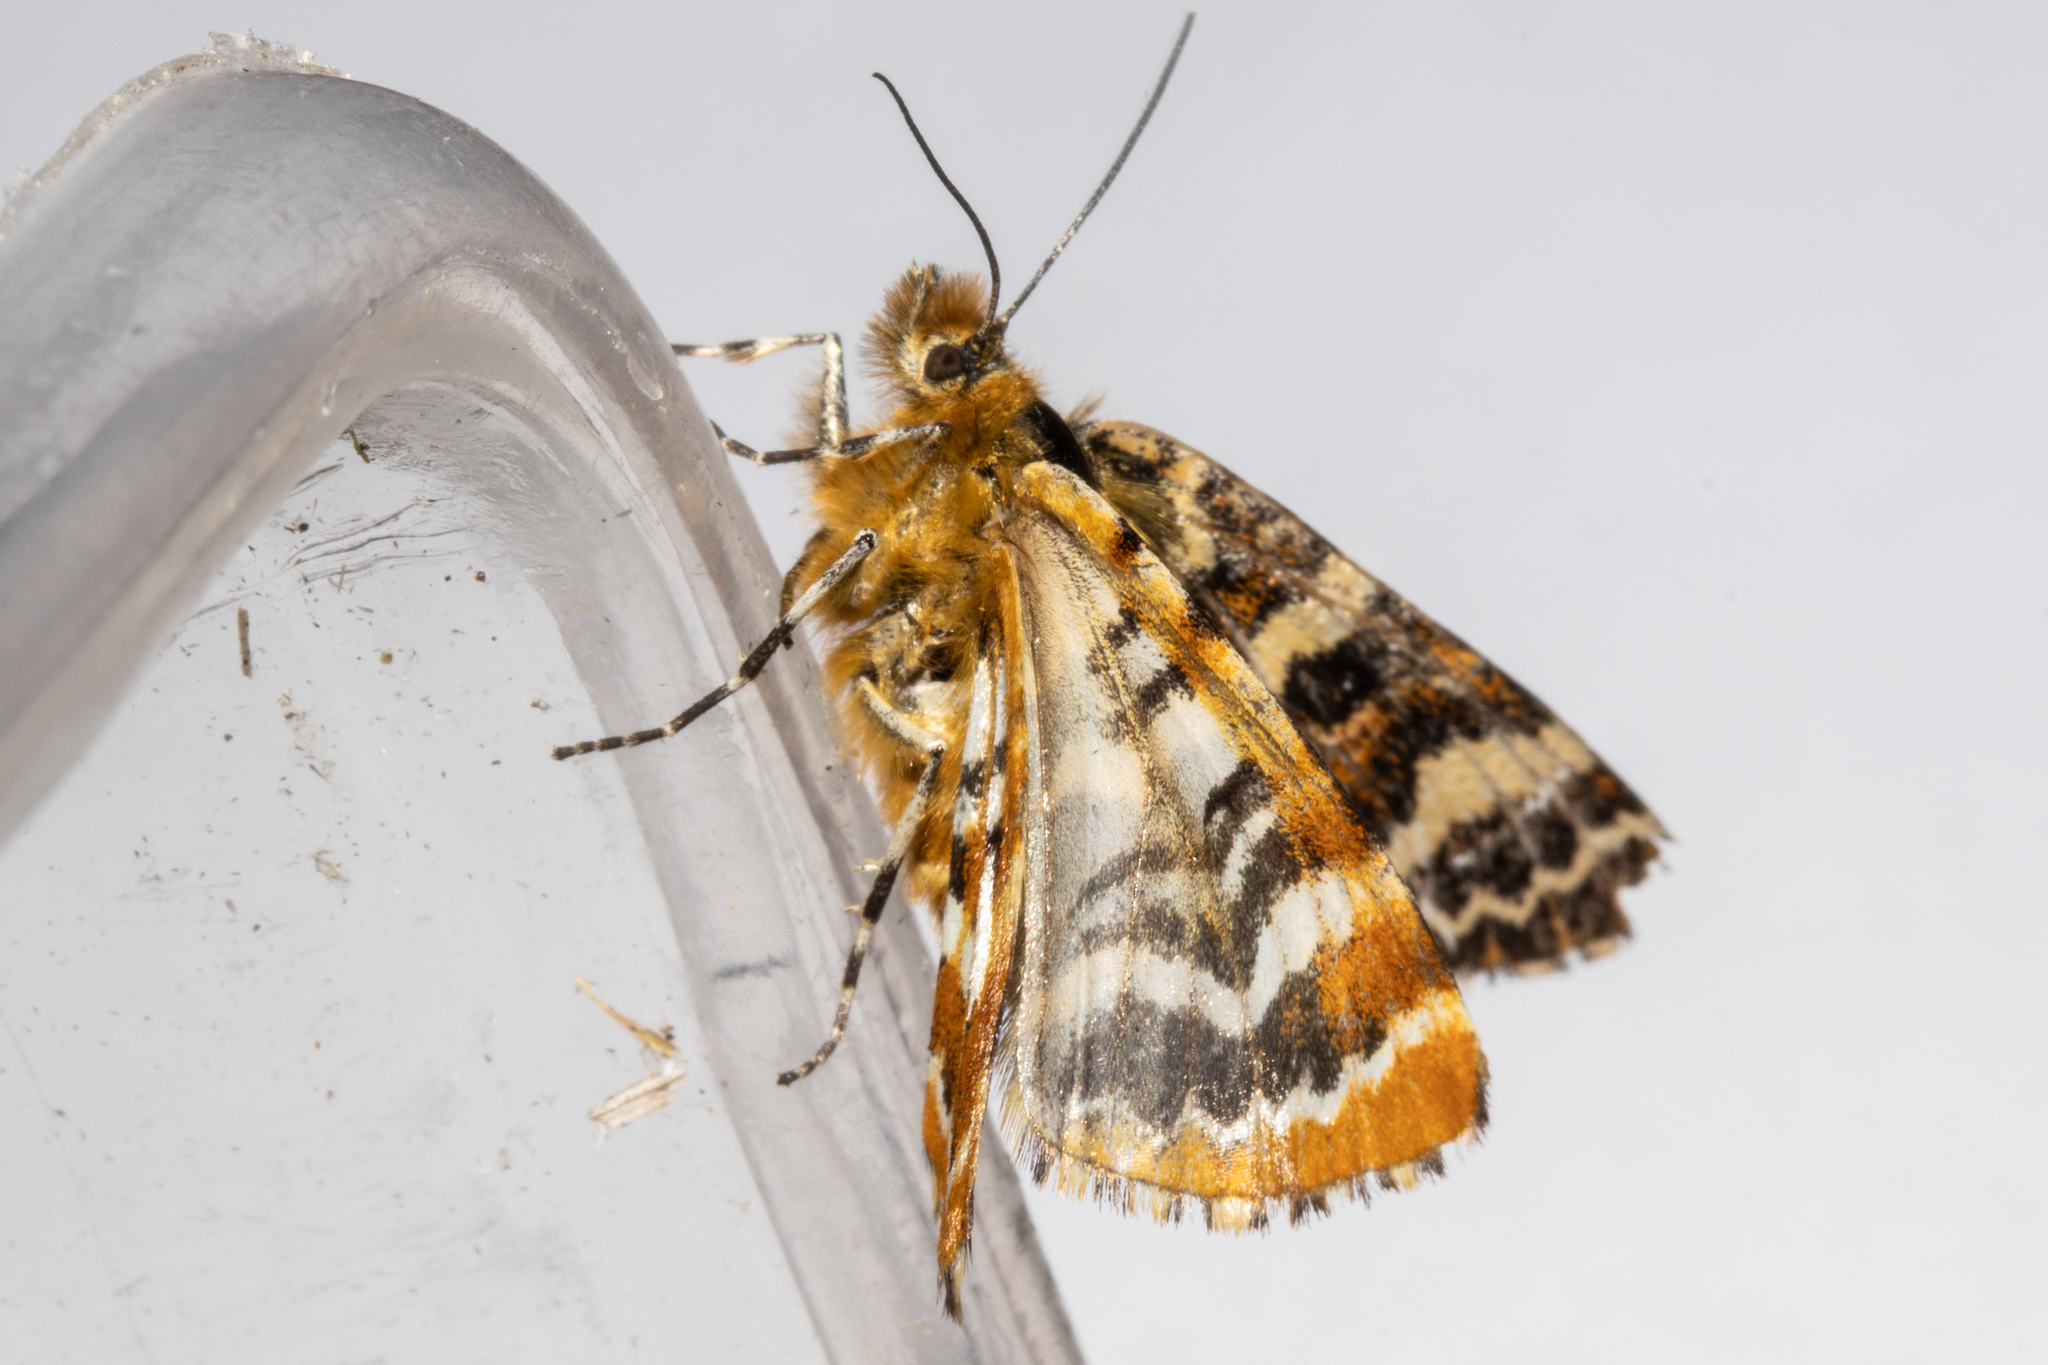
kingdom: Animalia
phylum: Arthropoda
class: Insecta
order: Lepidoptera
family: Geometridae
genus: Dasyuris
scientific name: Dasyuris callicrena
